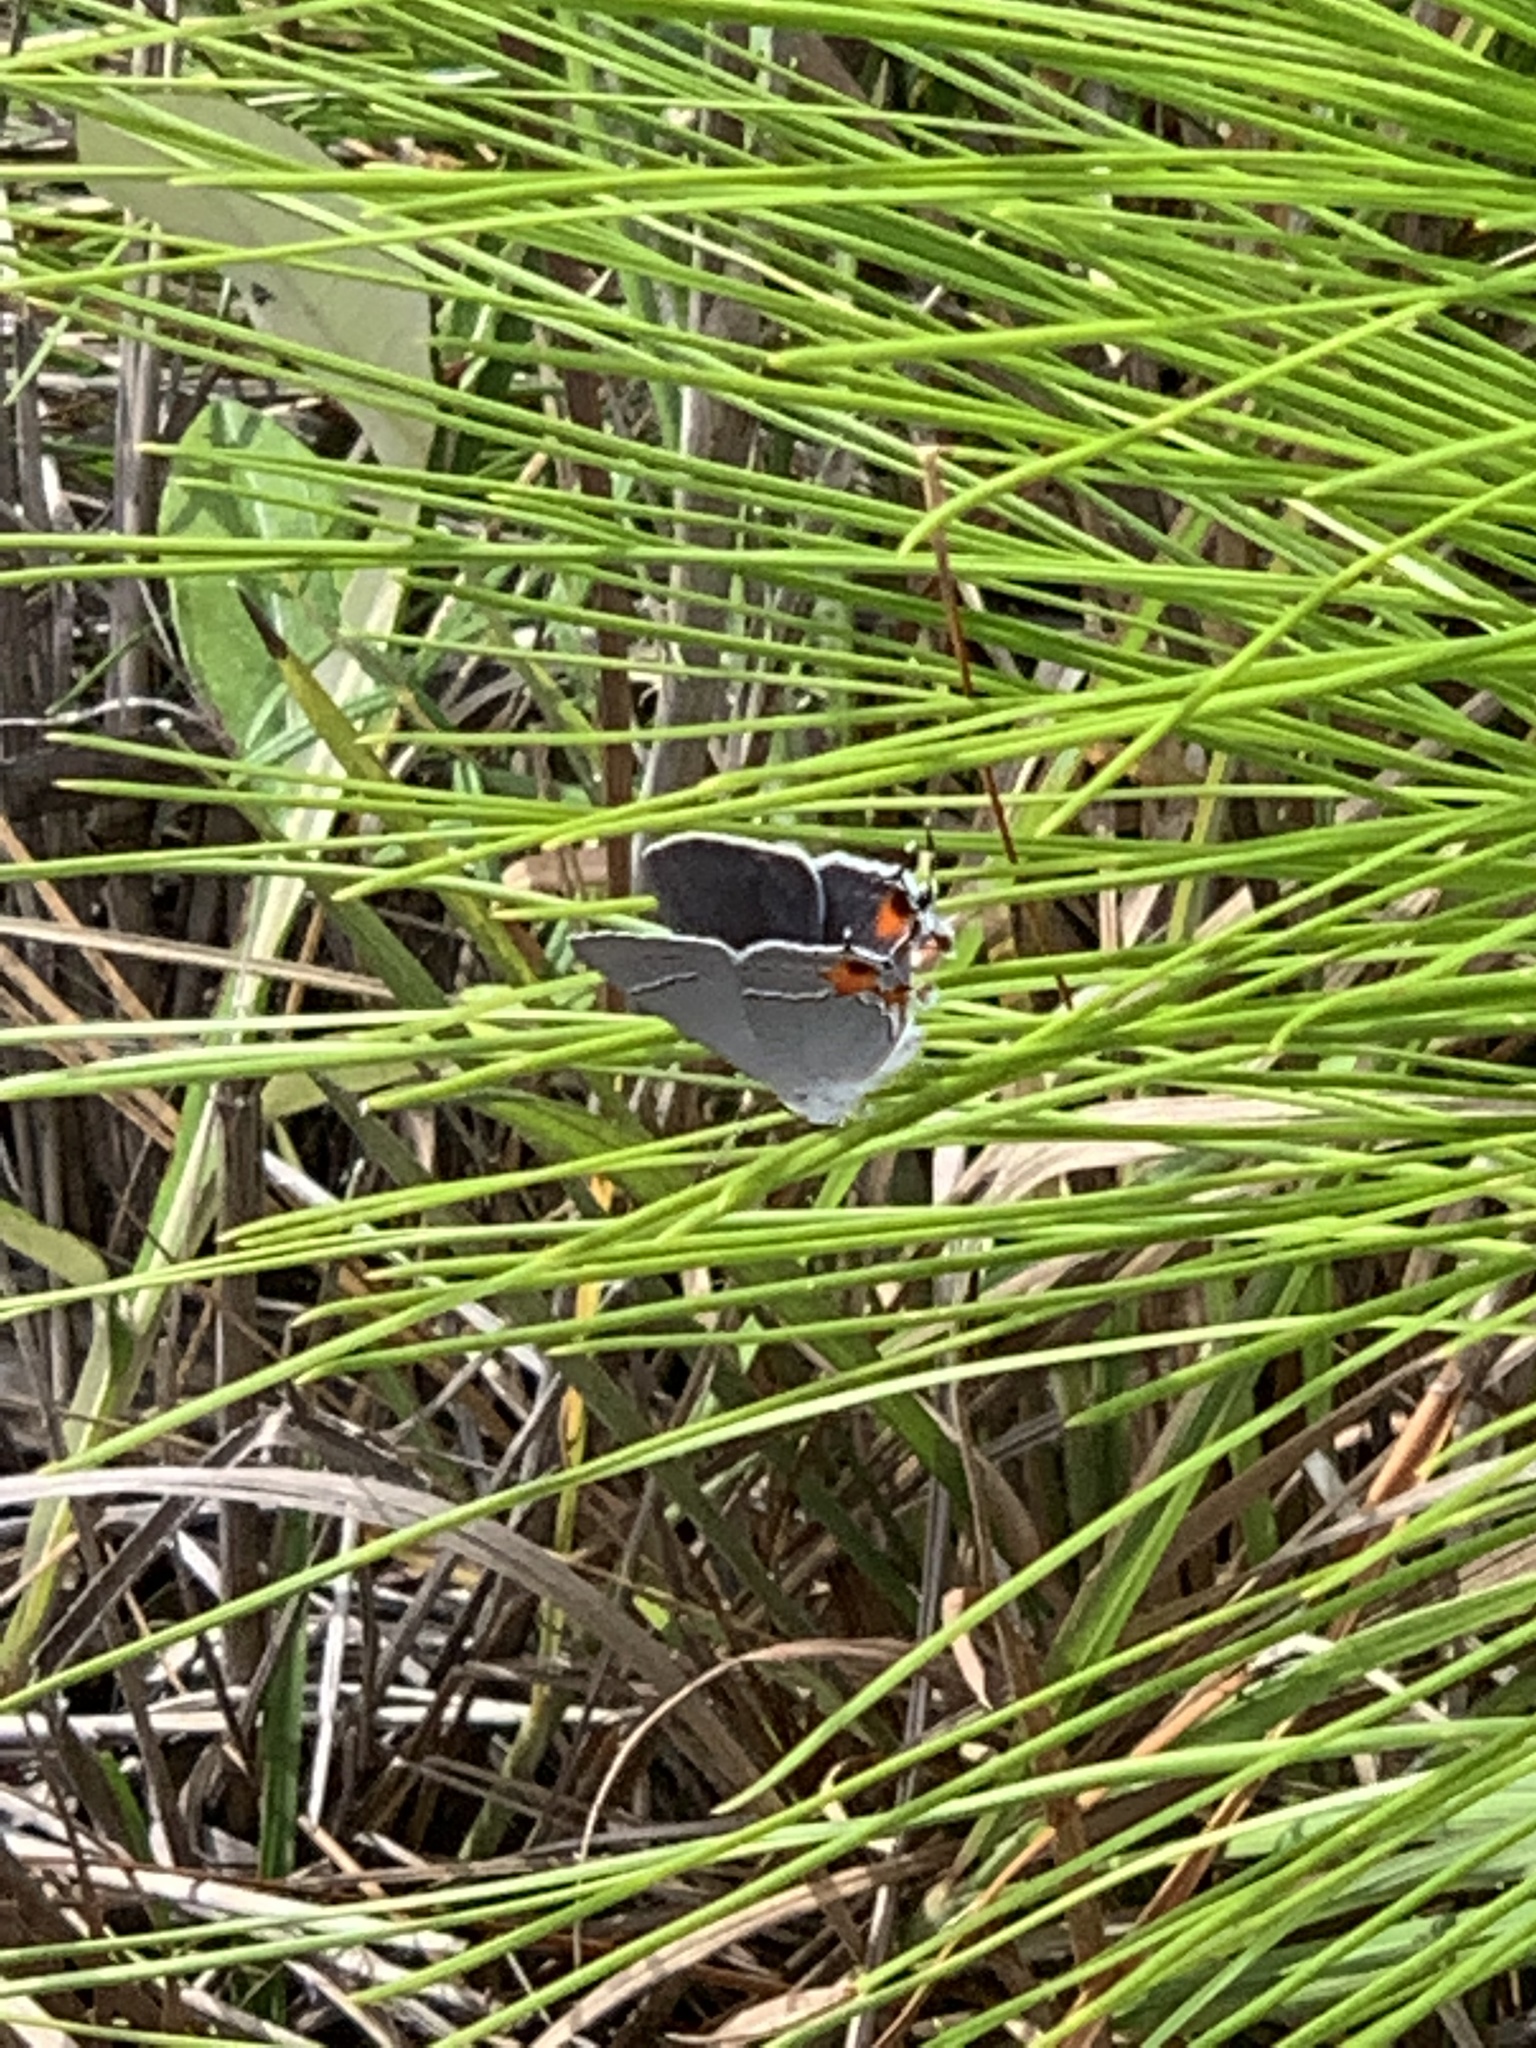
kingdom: Animalia
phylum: Arthropoda
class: Insecta
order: Lepidoptera
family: Lycaenidae
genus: Strymon
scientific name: Strymon melinus
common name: Gray hairstreak
